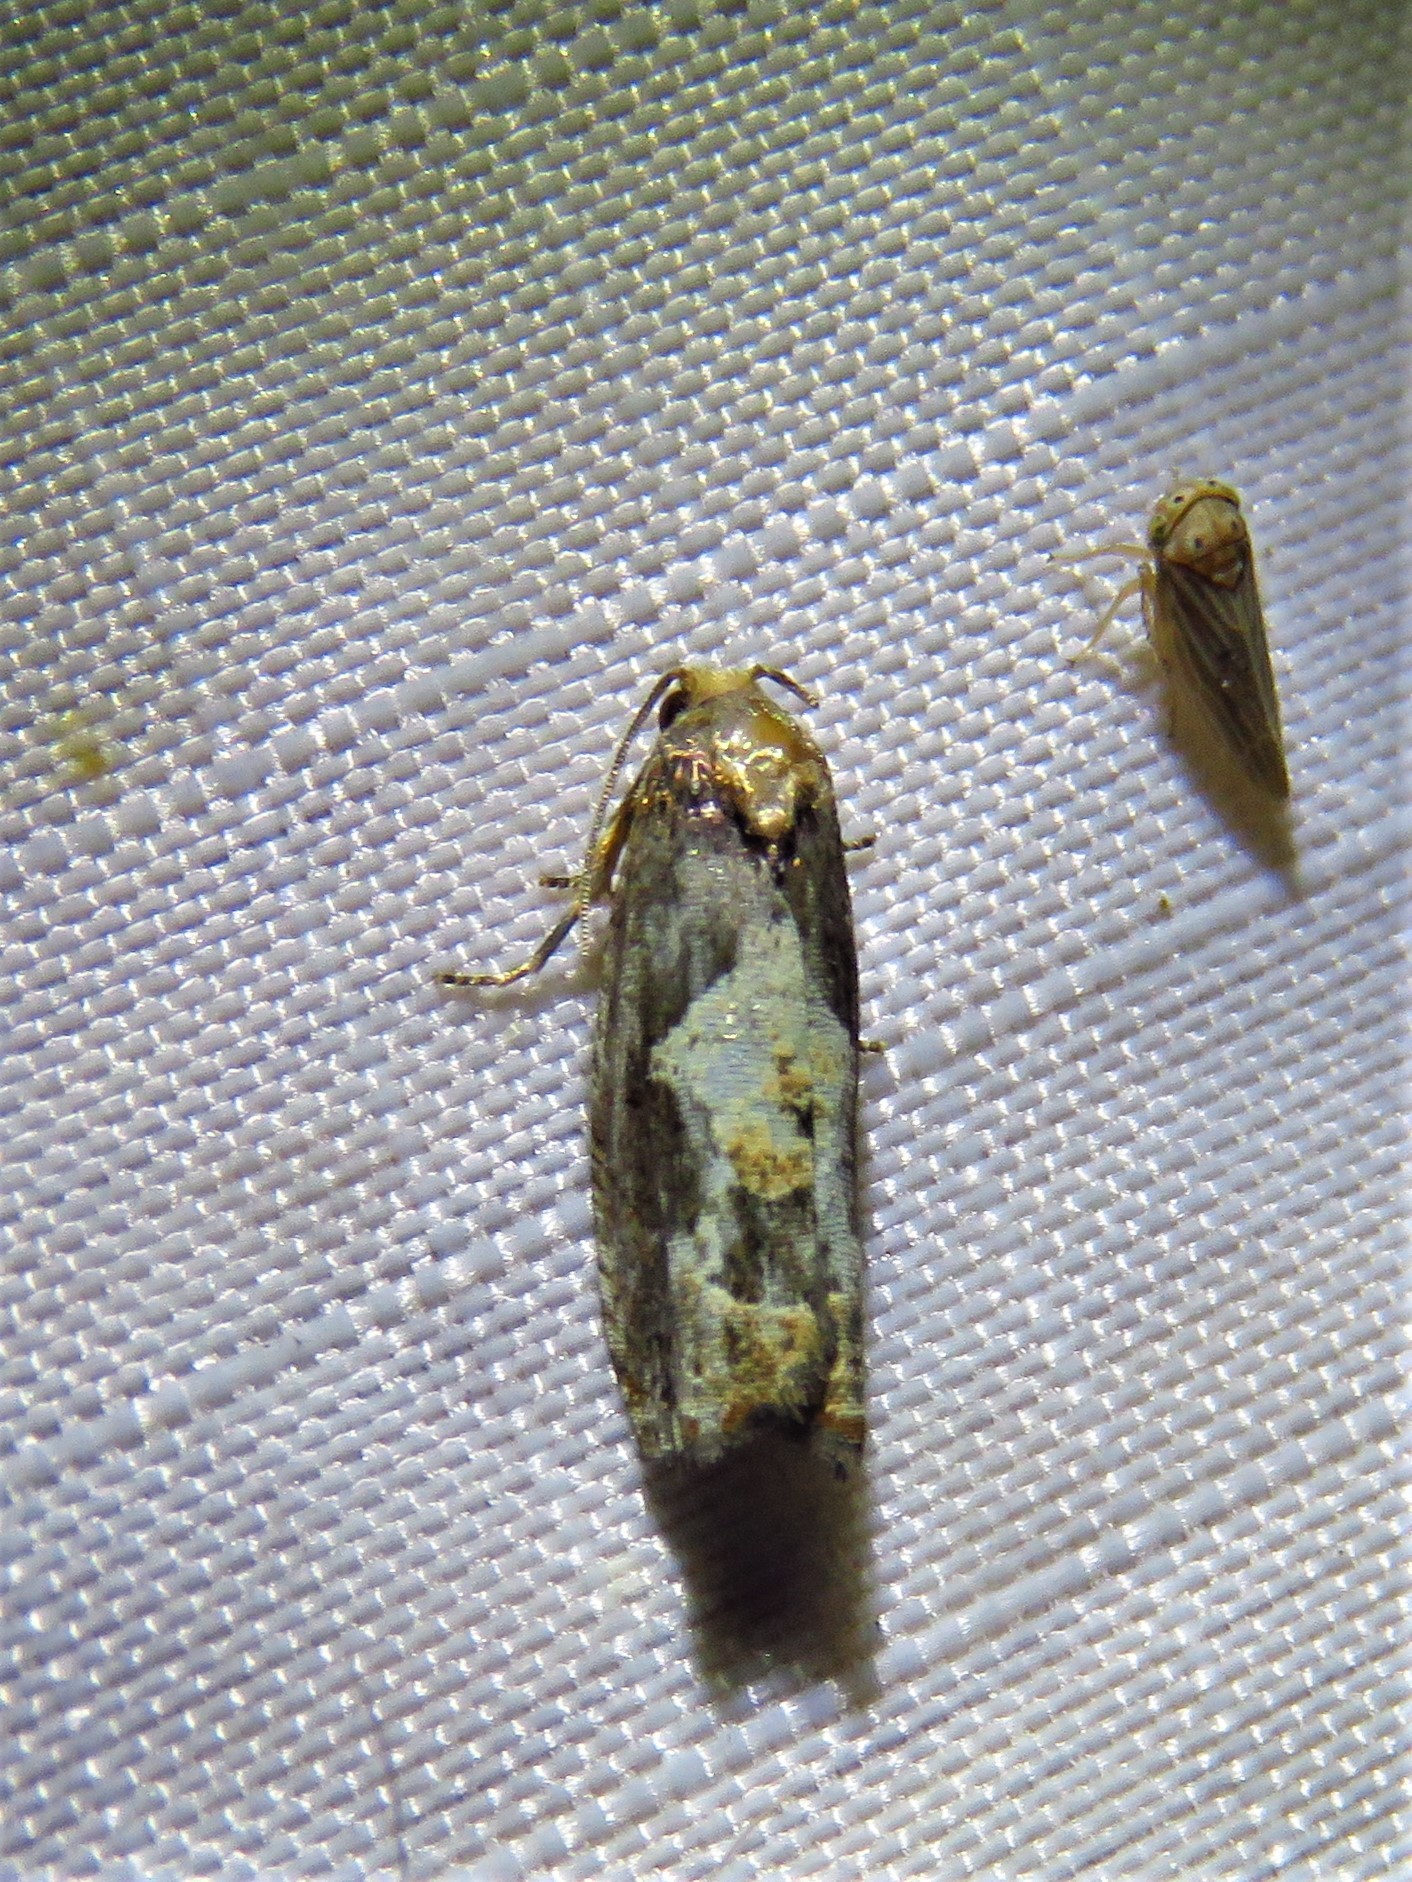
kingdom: Animalia
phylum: Arthropoda
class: Insecta
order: Lepidoptera
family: Tortricidae
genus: Epiblema
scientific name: Epiblema otiosana
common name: Bidens borer moth
